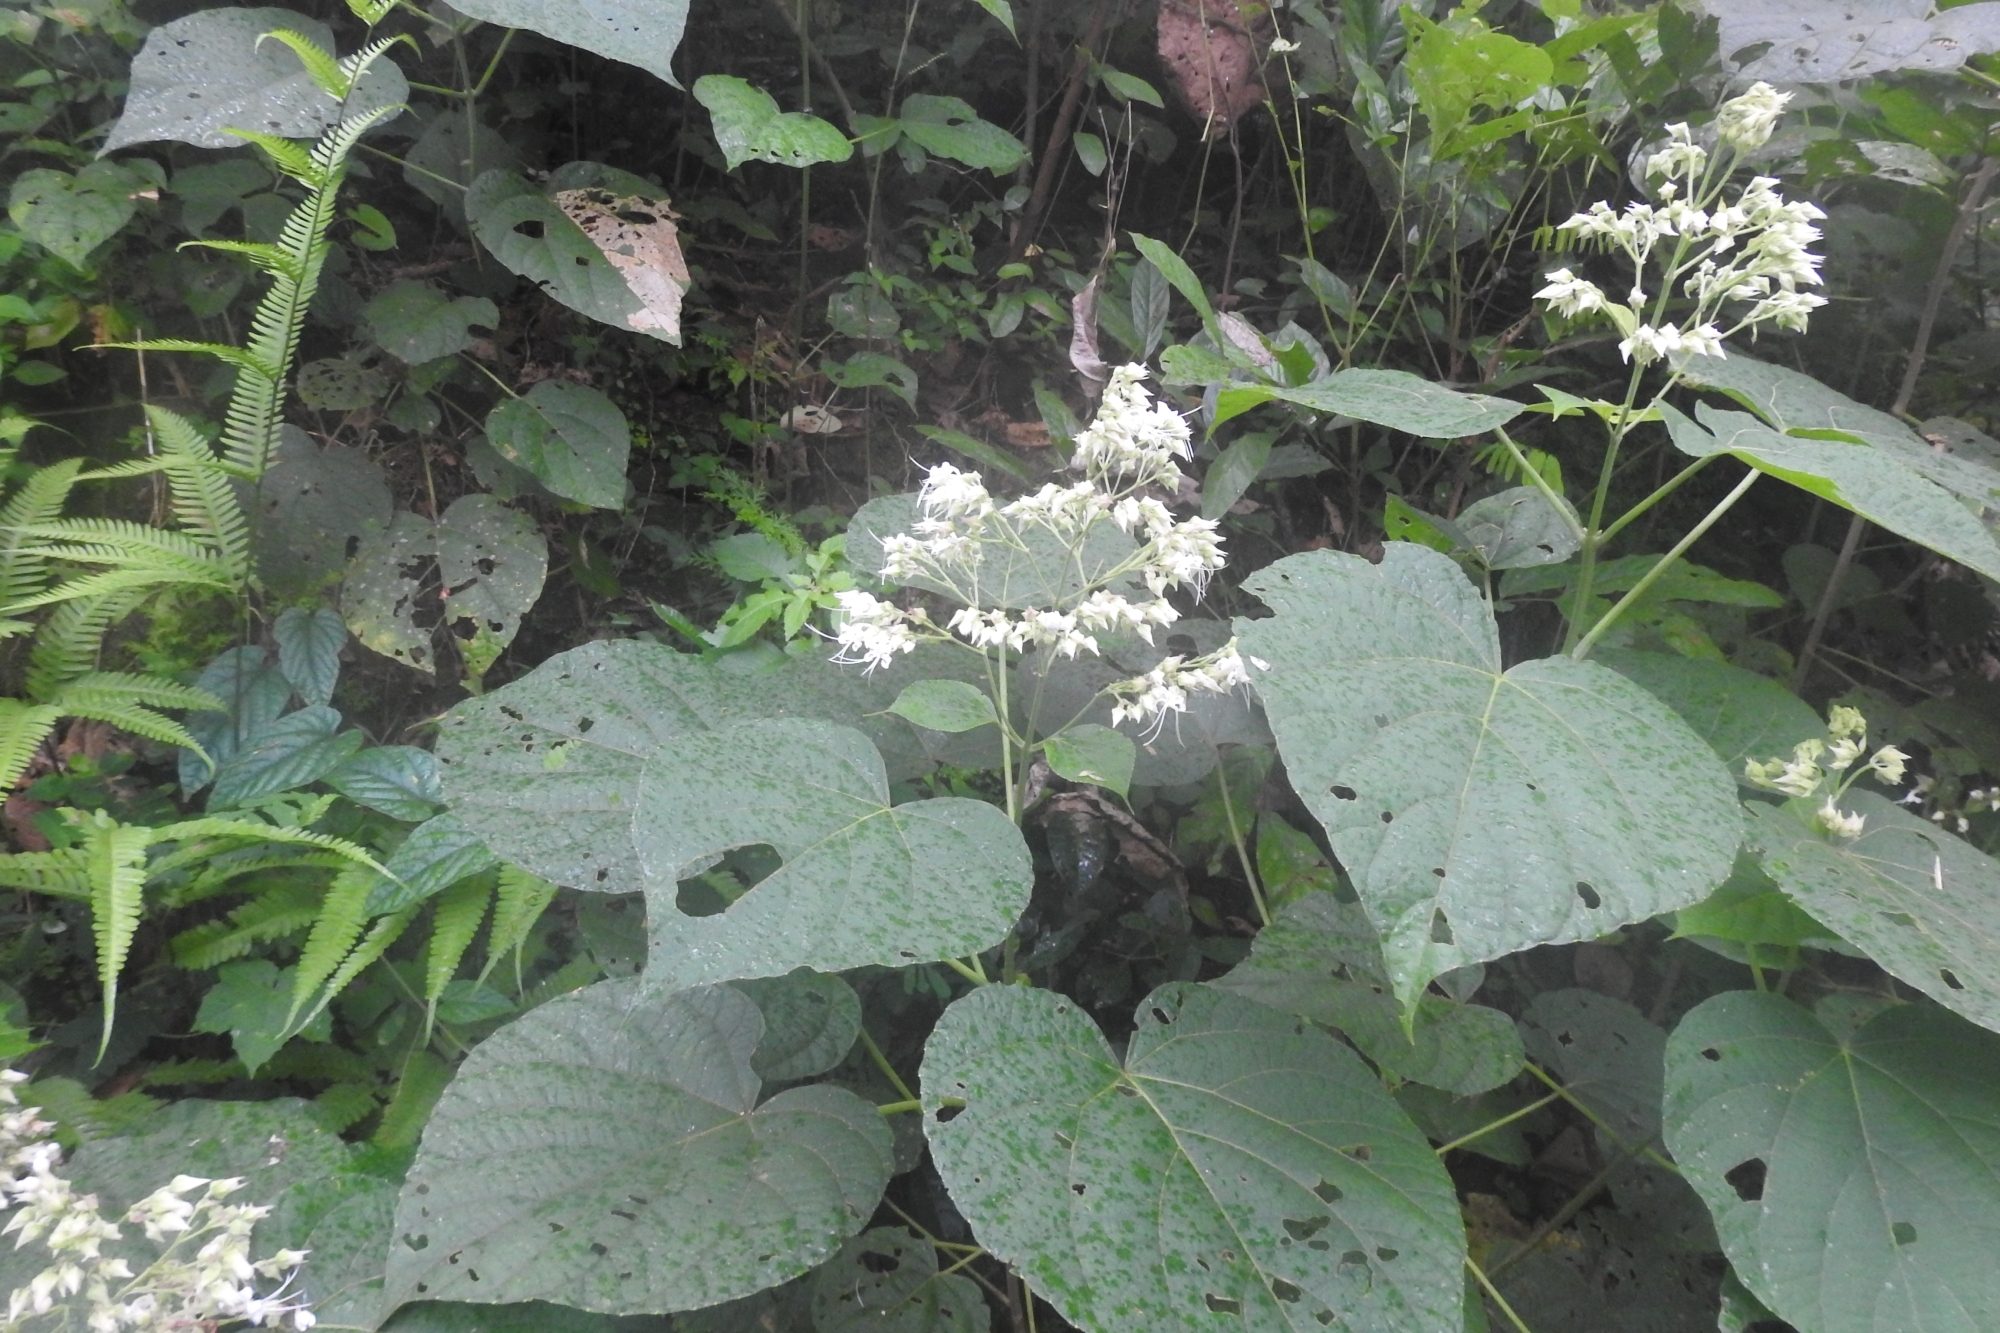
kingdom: Plantae
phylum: Tracheophyta
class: Magnoliopsida
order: Lamiales
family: Lamiaceae
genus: Clerodendrum
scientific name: Clerodendrum infortunatum
